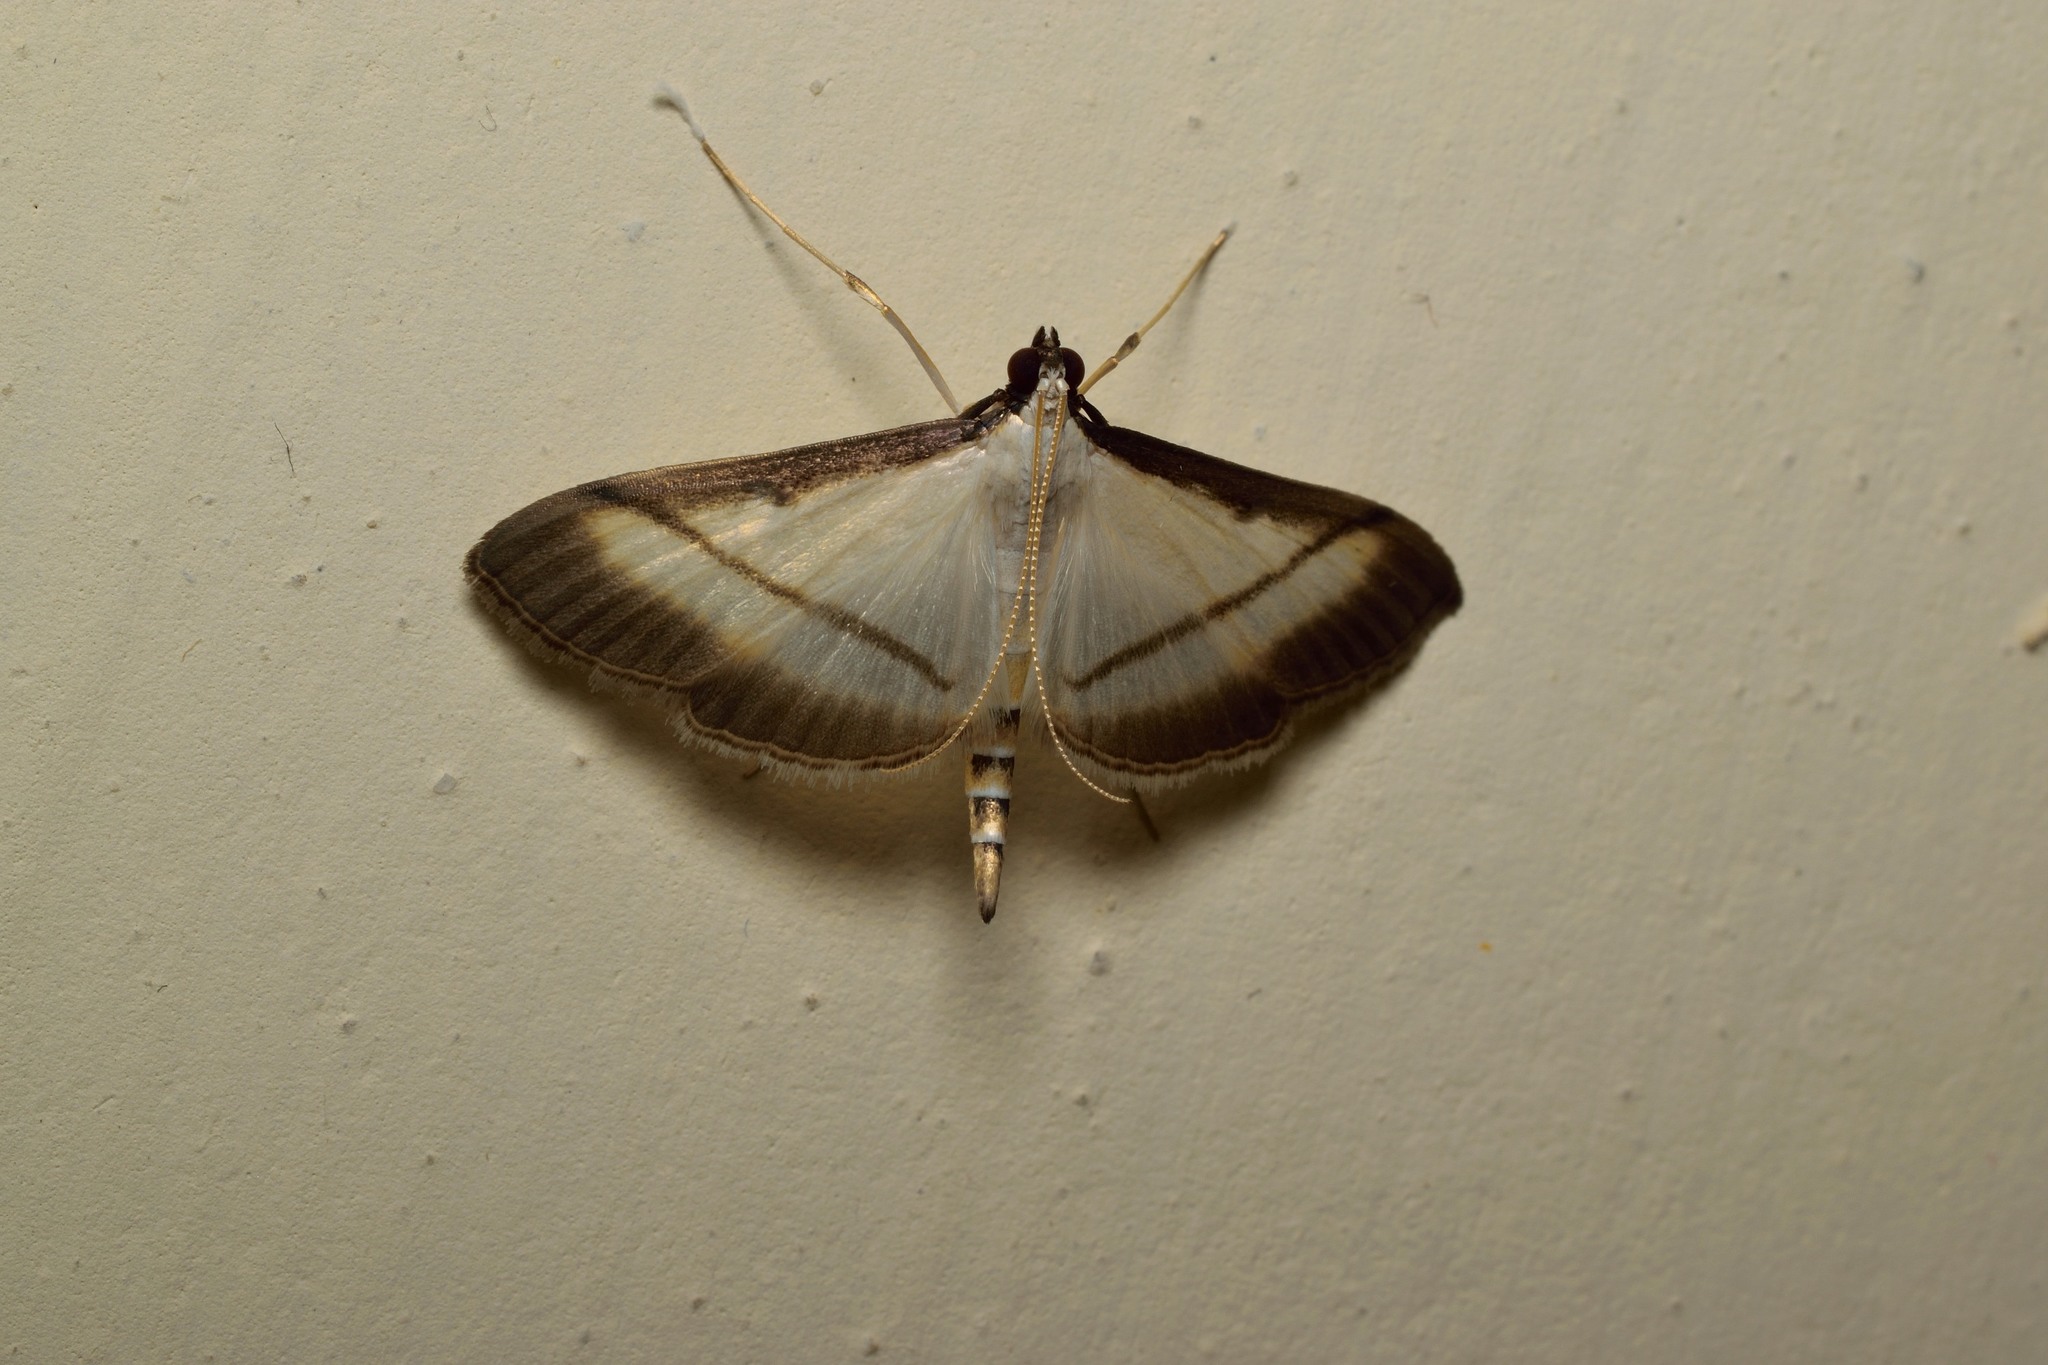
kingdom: Animalia
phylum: Arthropoda
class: Insecta
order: Lepidoptera
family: Crambidae
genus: Bradina
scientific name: Bradina diagonalis
